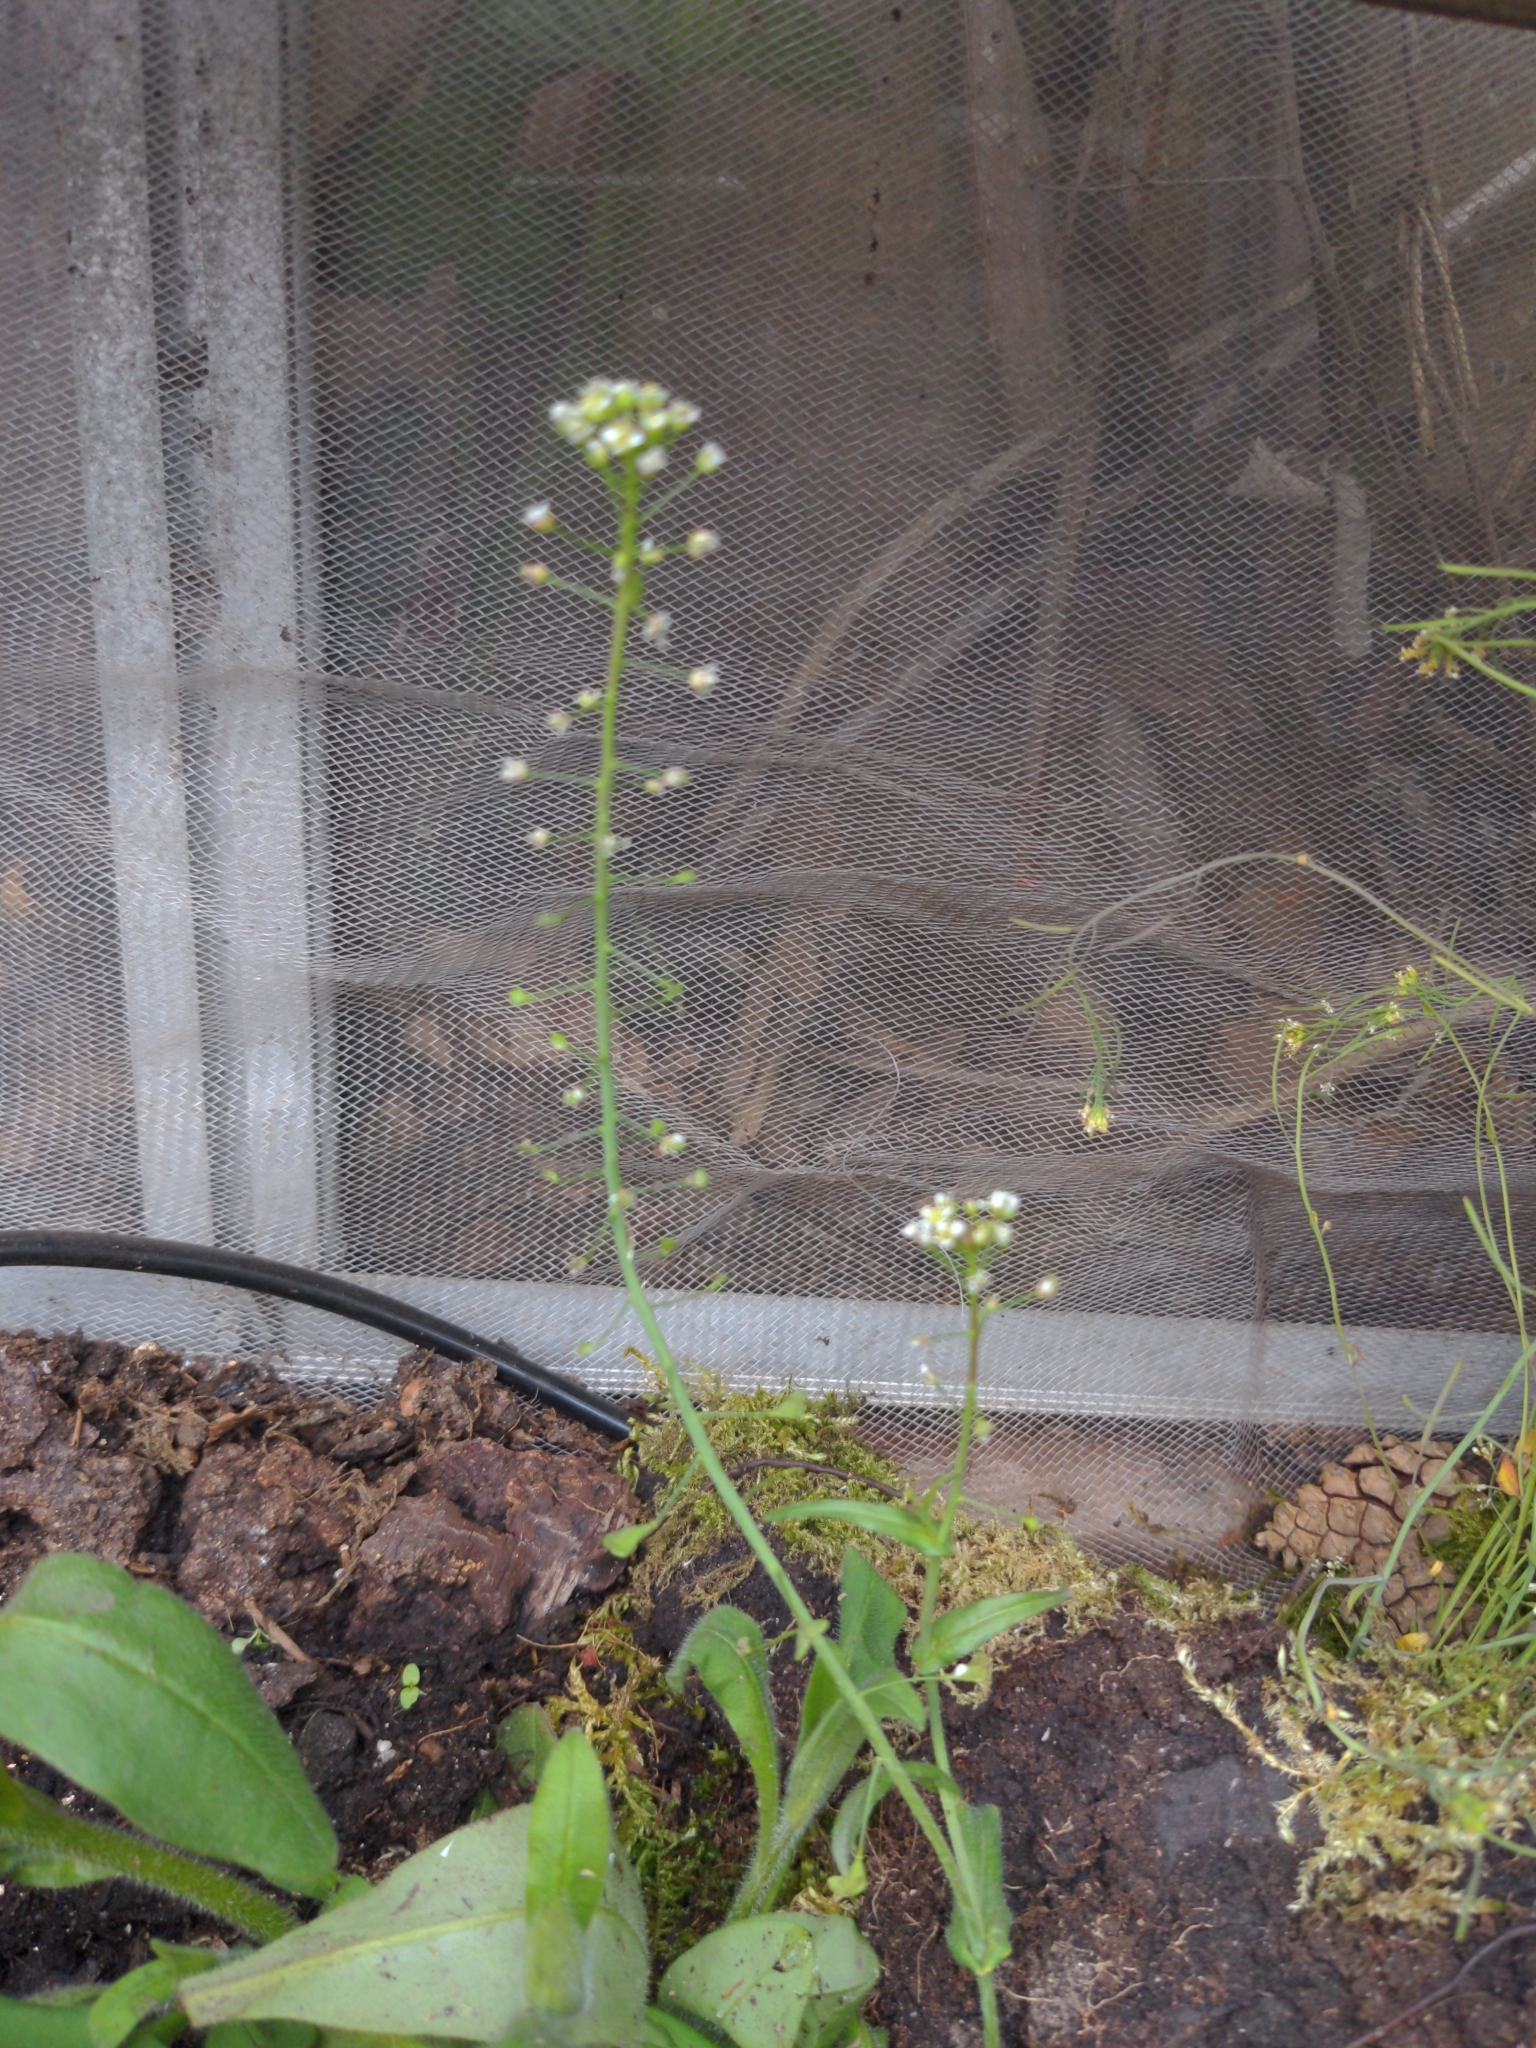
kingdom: Plantae
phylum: Tracheophyta
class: Magnoliopsida
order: Brassicales
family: Brassicaceae
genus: Capsella
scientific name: Capsella bursa-pastoris
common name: Shepherd's purse
